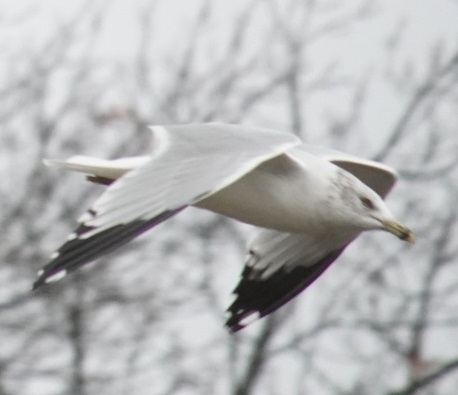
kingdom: Animalia
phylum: Chordata
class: Aves
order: Charadriiformes
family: Laridae
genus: Larus
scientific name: Larus delawarensis
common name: Ring-billed gull
